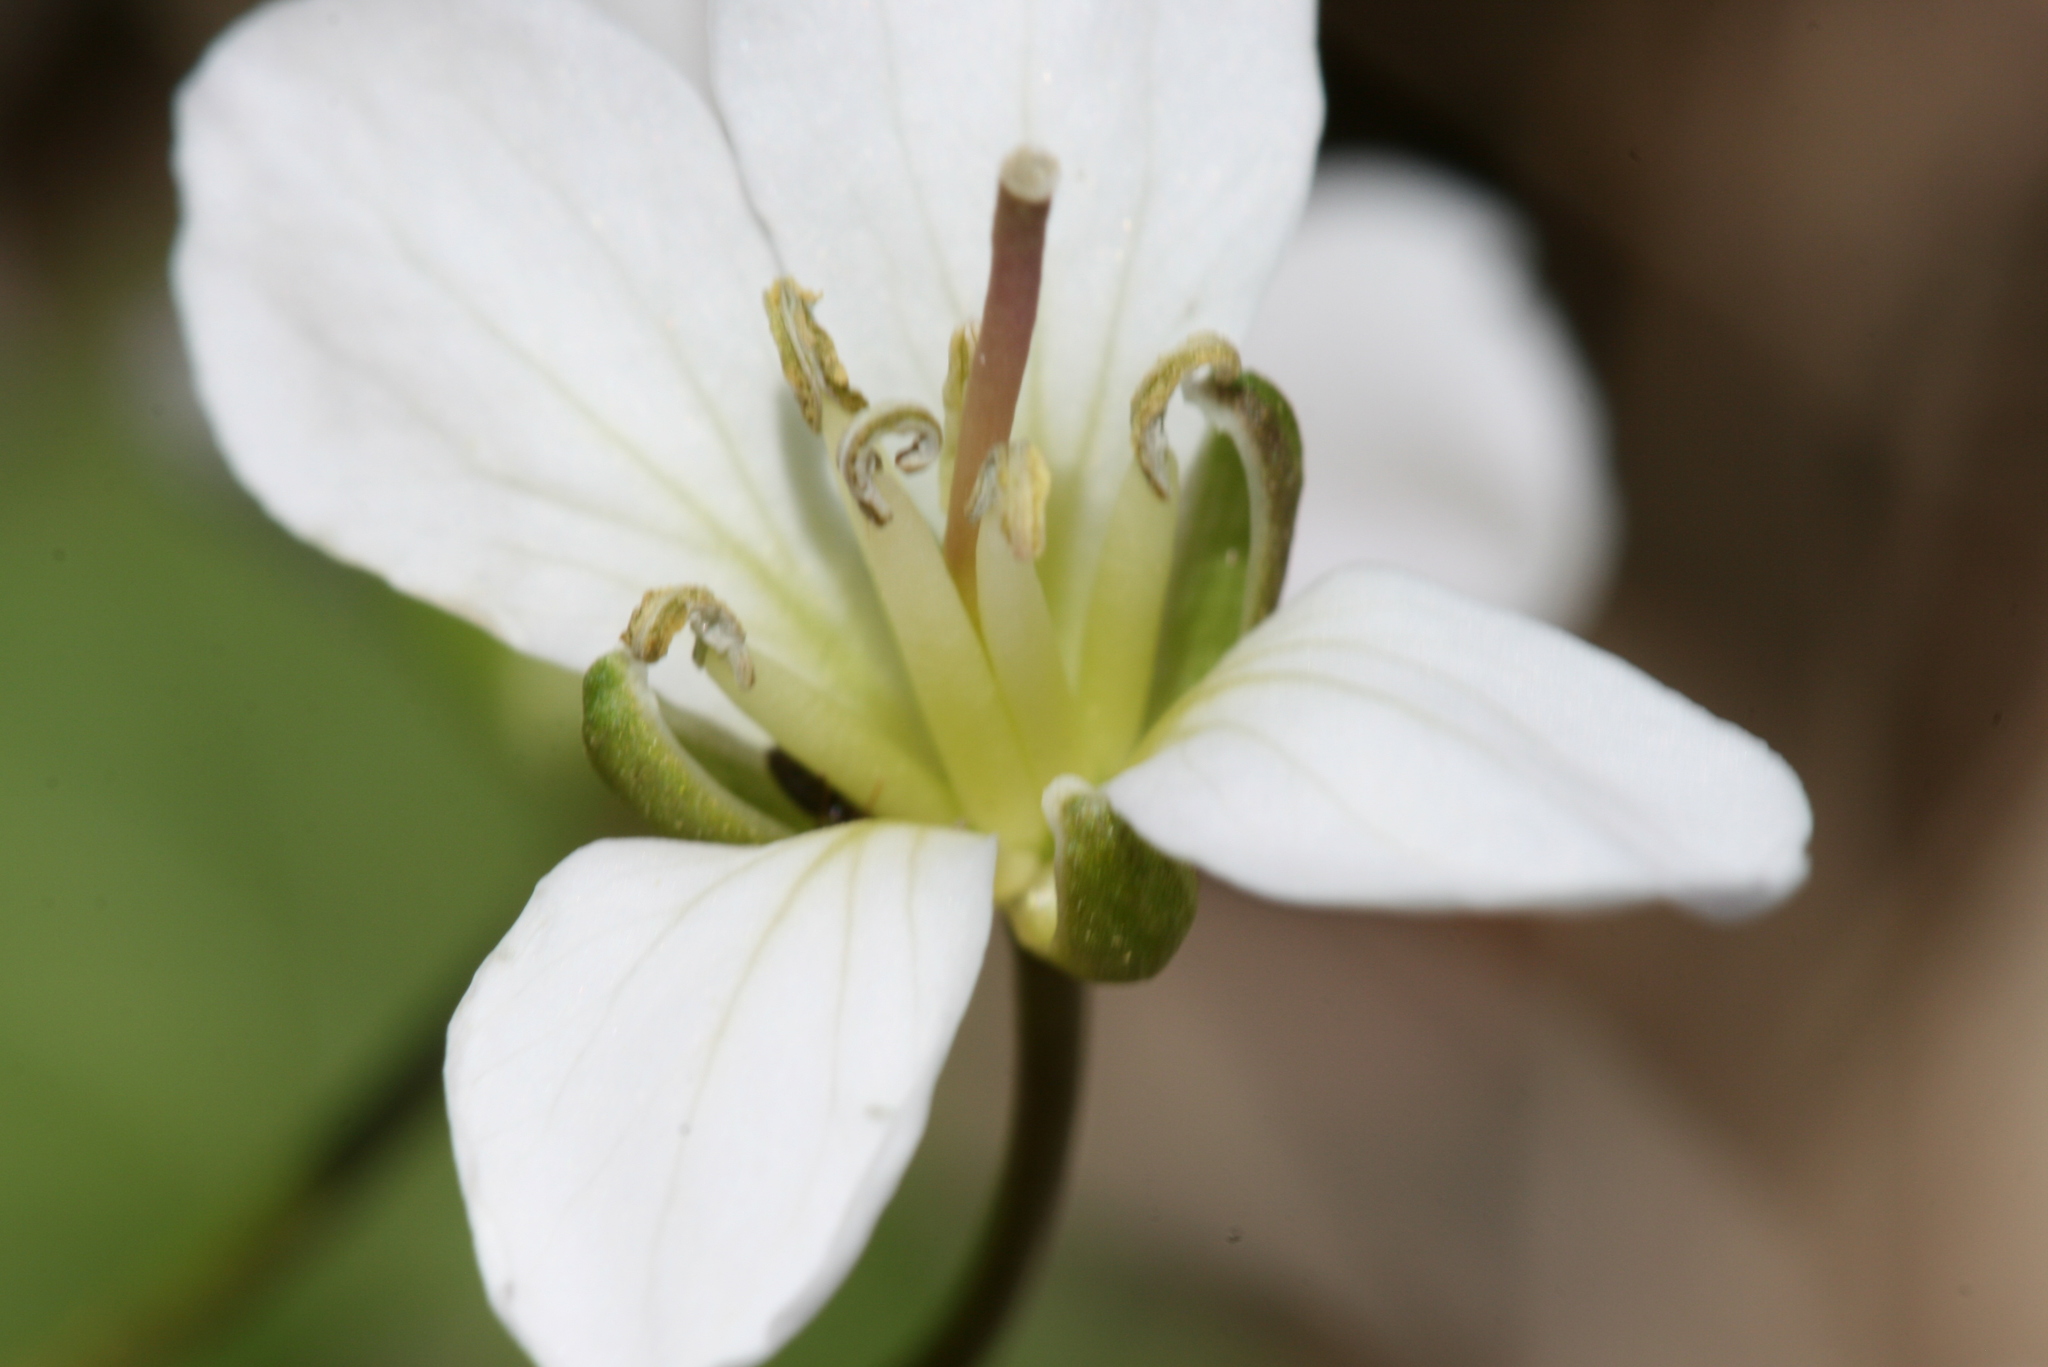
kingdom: Plantae
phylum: Tracheophyta
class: Magnoliopsida
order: Brassicales
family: Brassicaceae
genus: Cardamine
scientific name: Cardamine diphylla
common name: Broad-leaved toothwort
